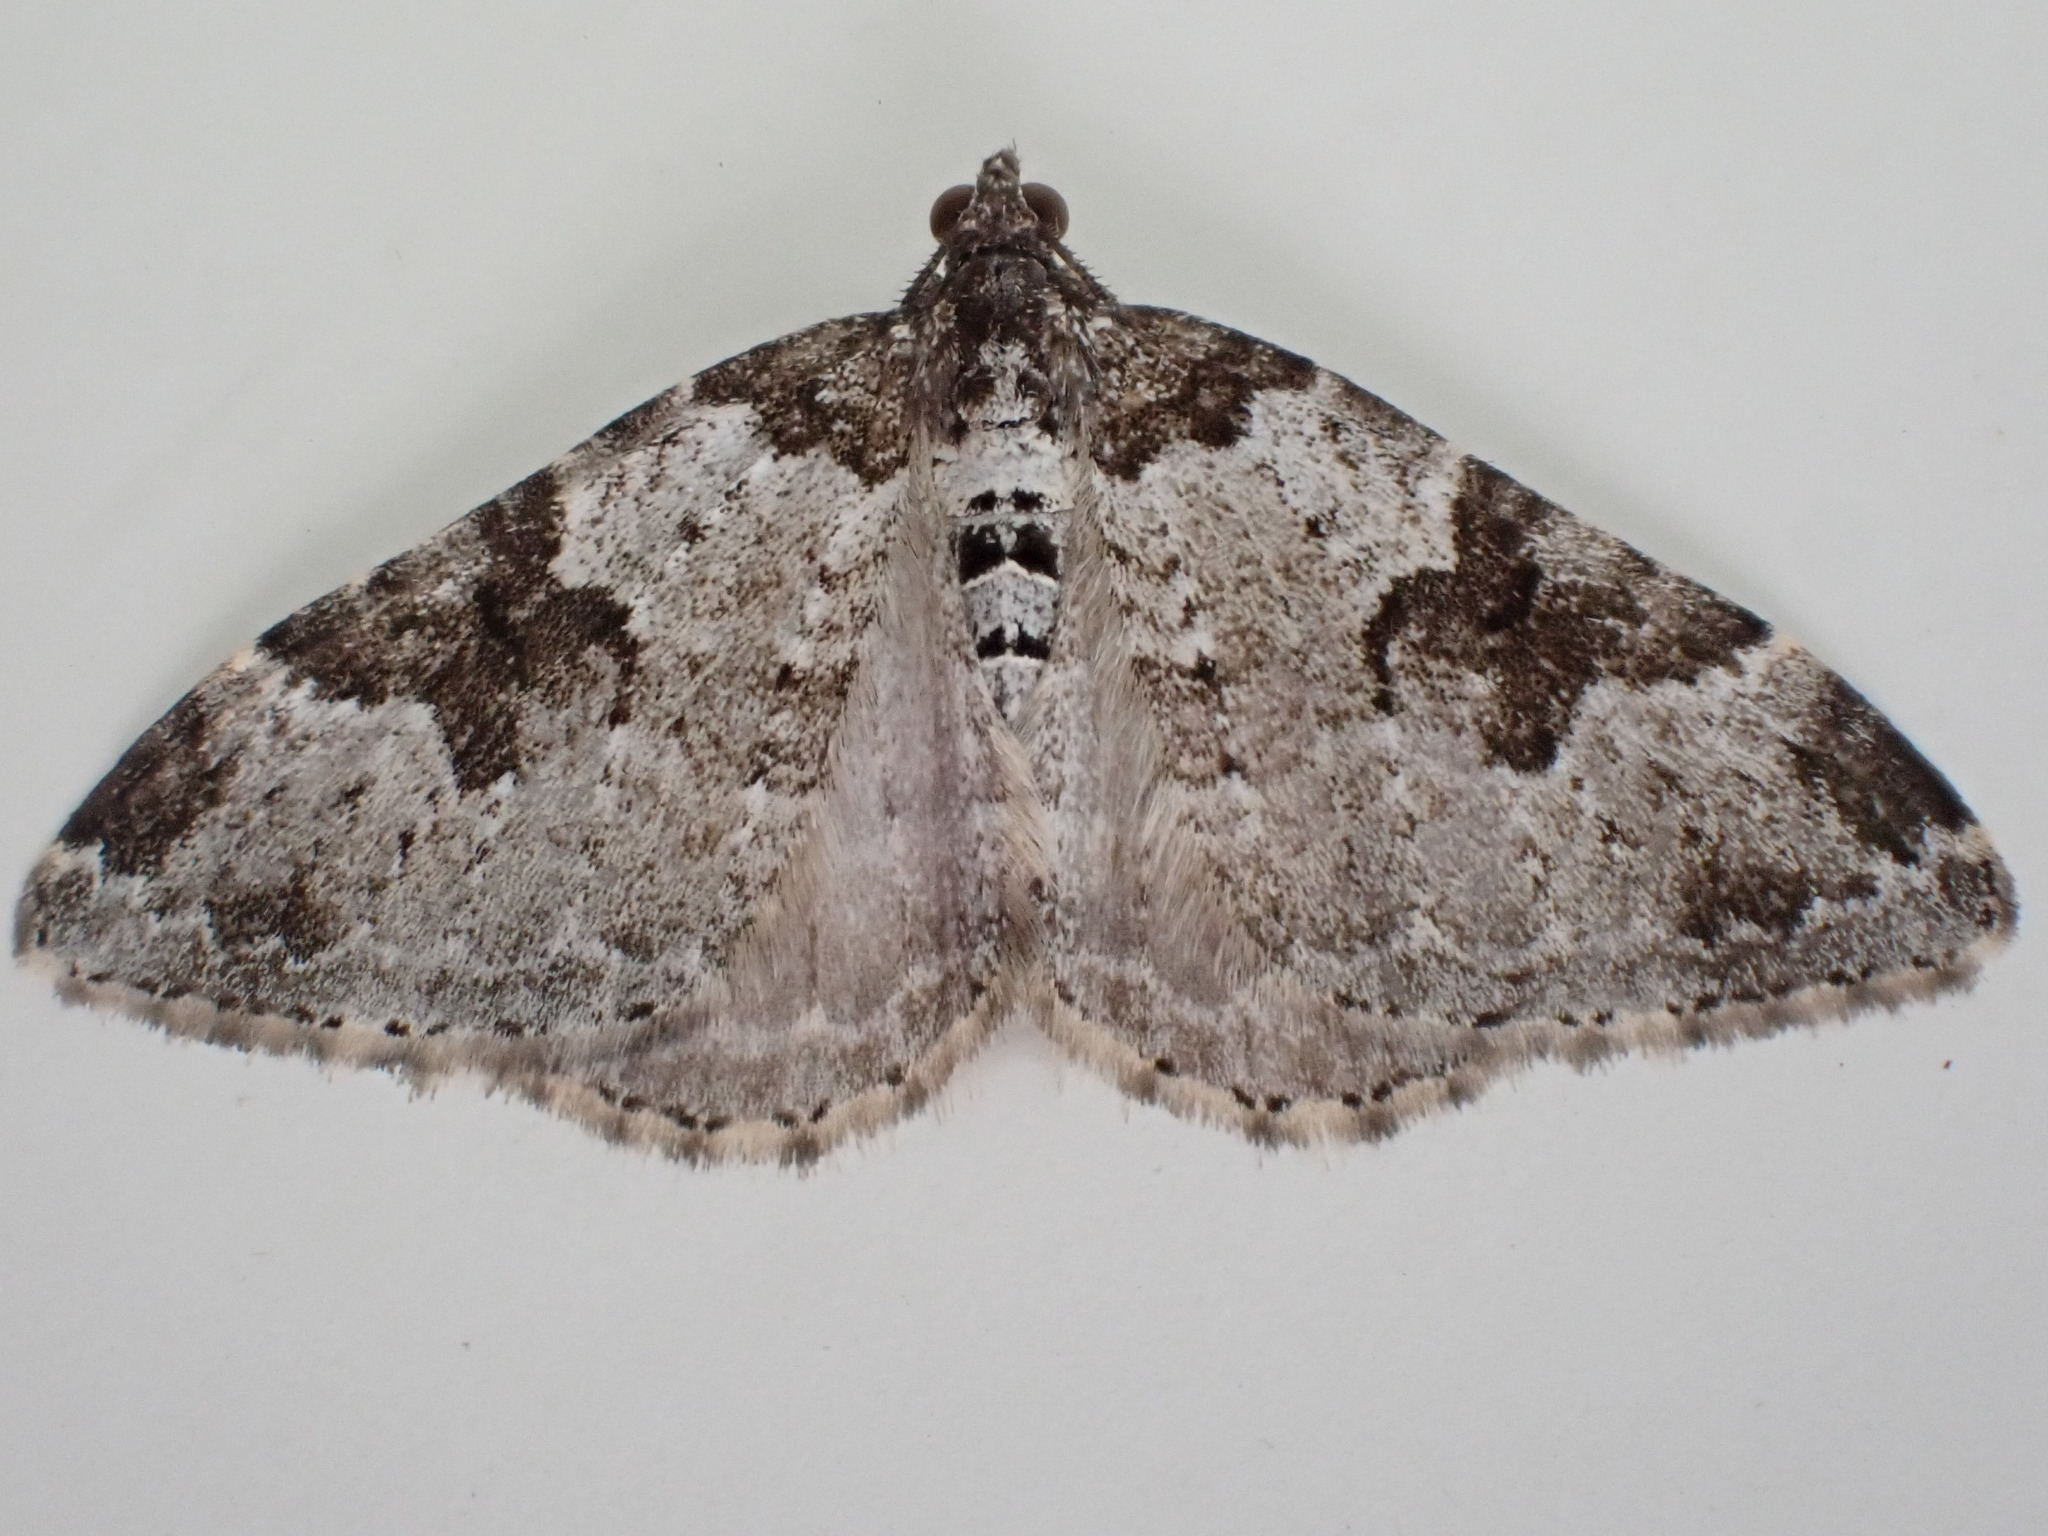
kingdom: Animalia
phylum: Arthropoda
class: Insecta
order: Lepidoptera
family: Geometridae
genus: Xanthorhoe
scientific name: Xanthorhoe fluctuata
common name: Garden carpet
